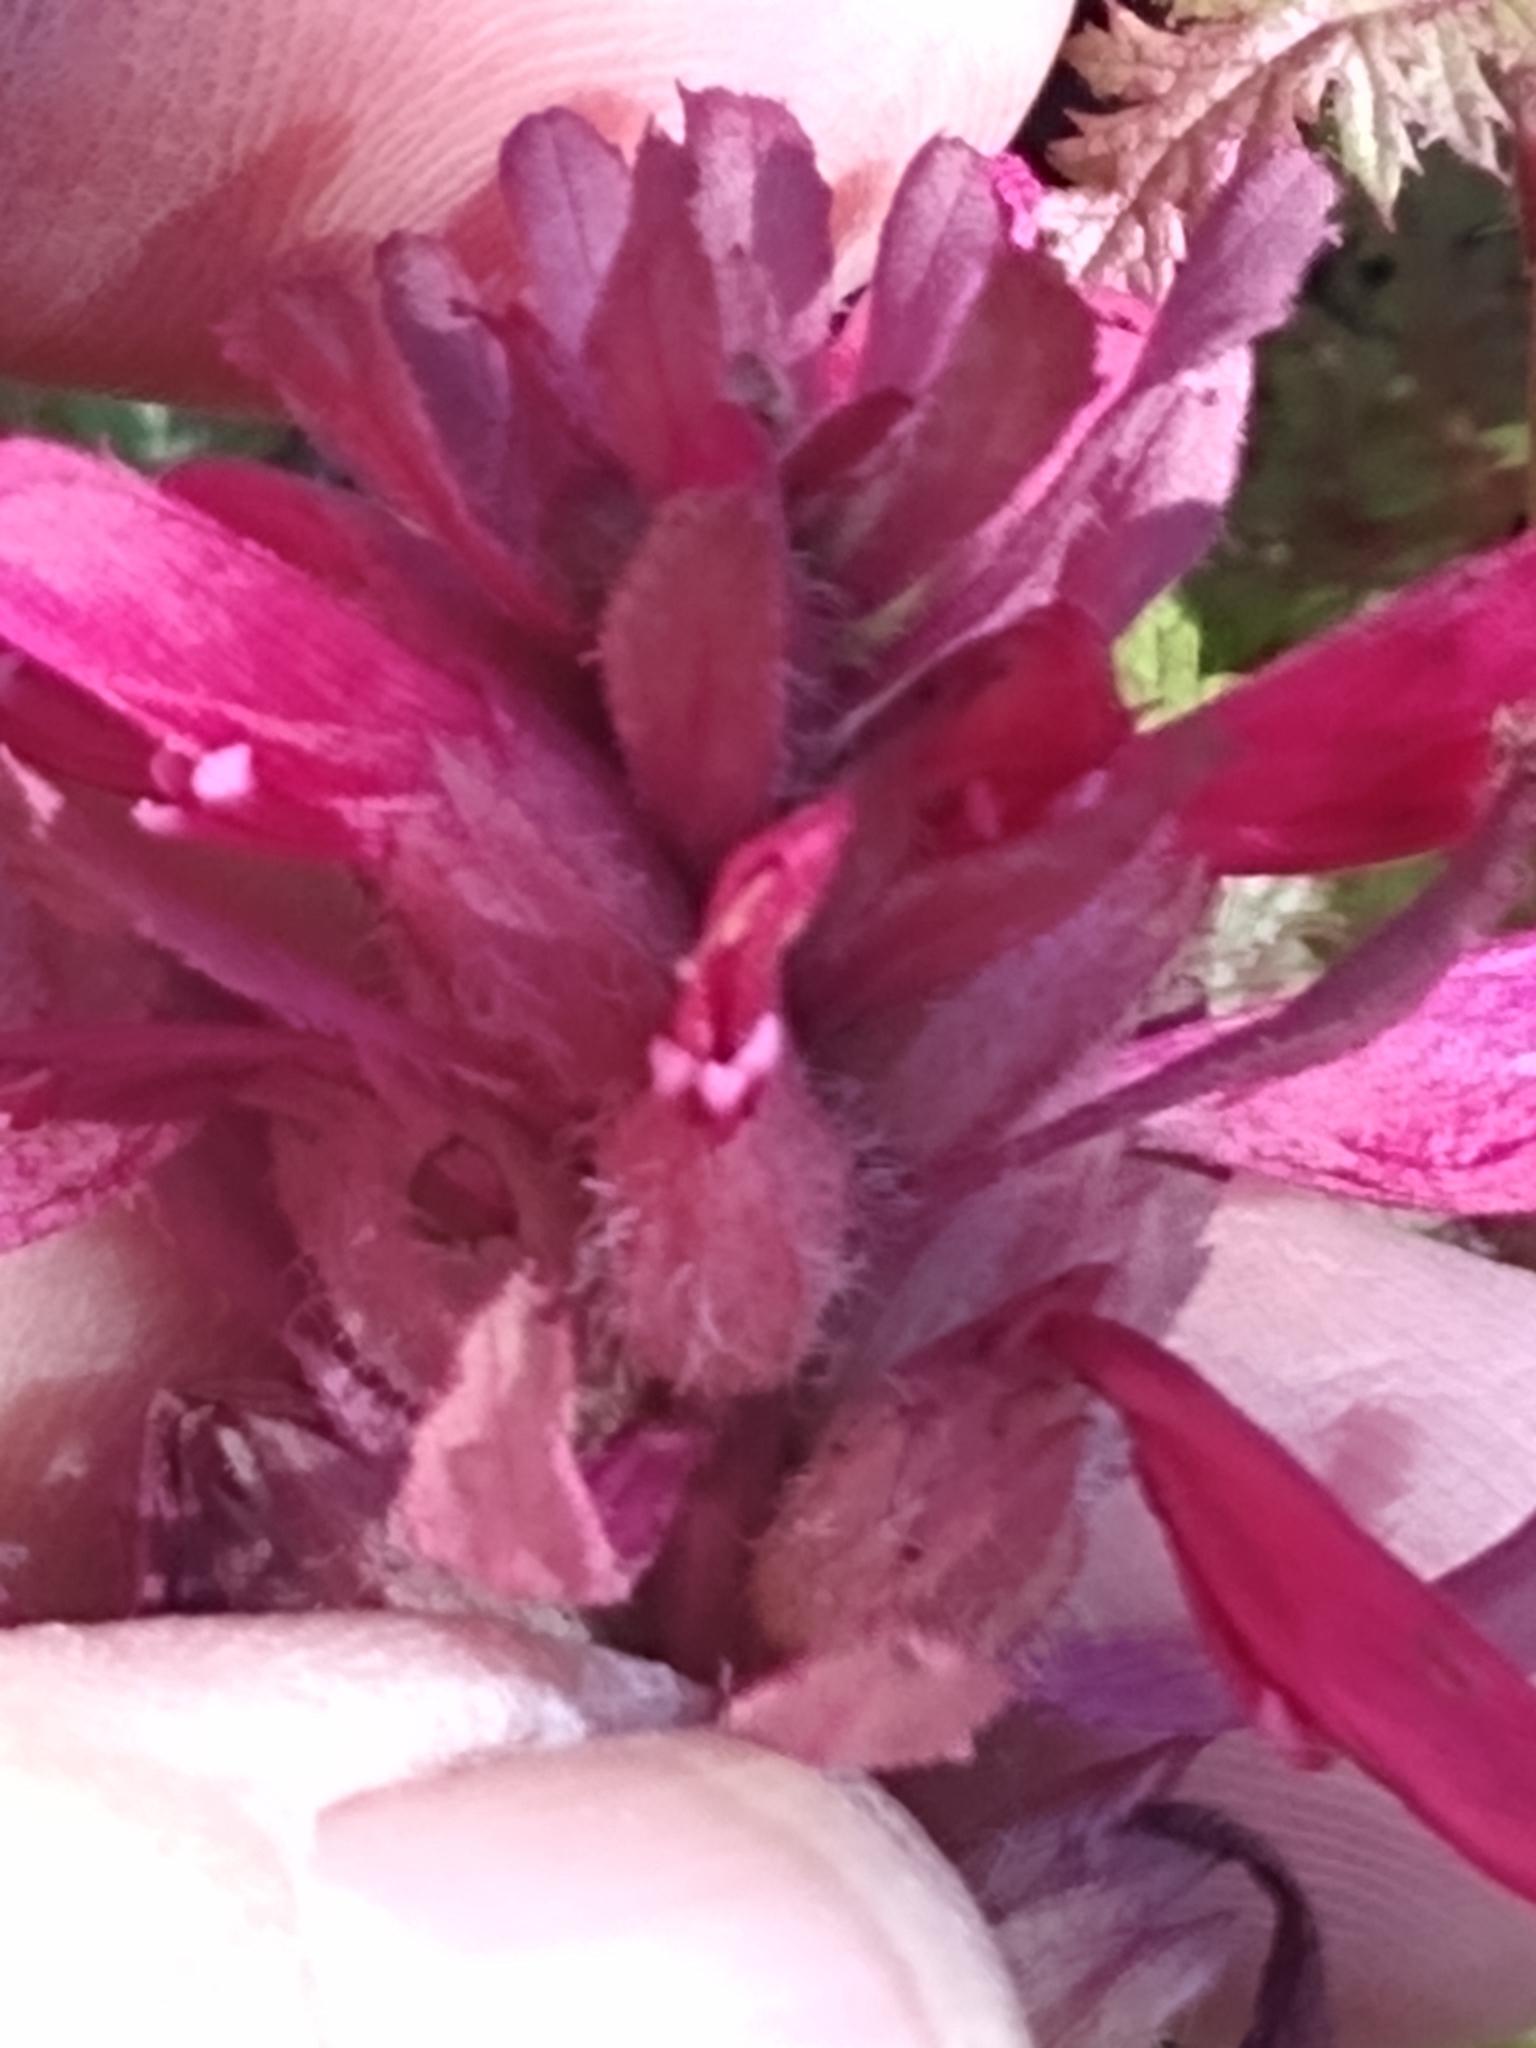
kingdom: Plantae
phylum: Tracheophyta
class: Magnoliopsida
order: Lamiales
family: Orobanchaceae
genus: Pedicularis
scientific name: Pedicularis densiflora
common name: Indian warrior
